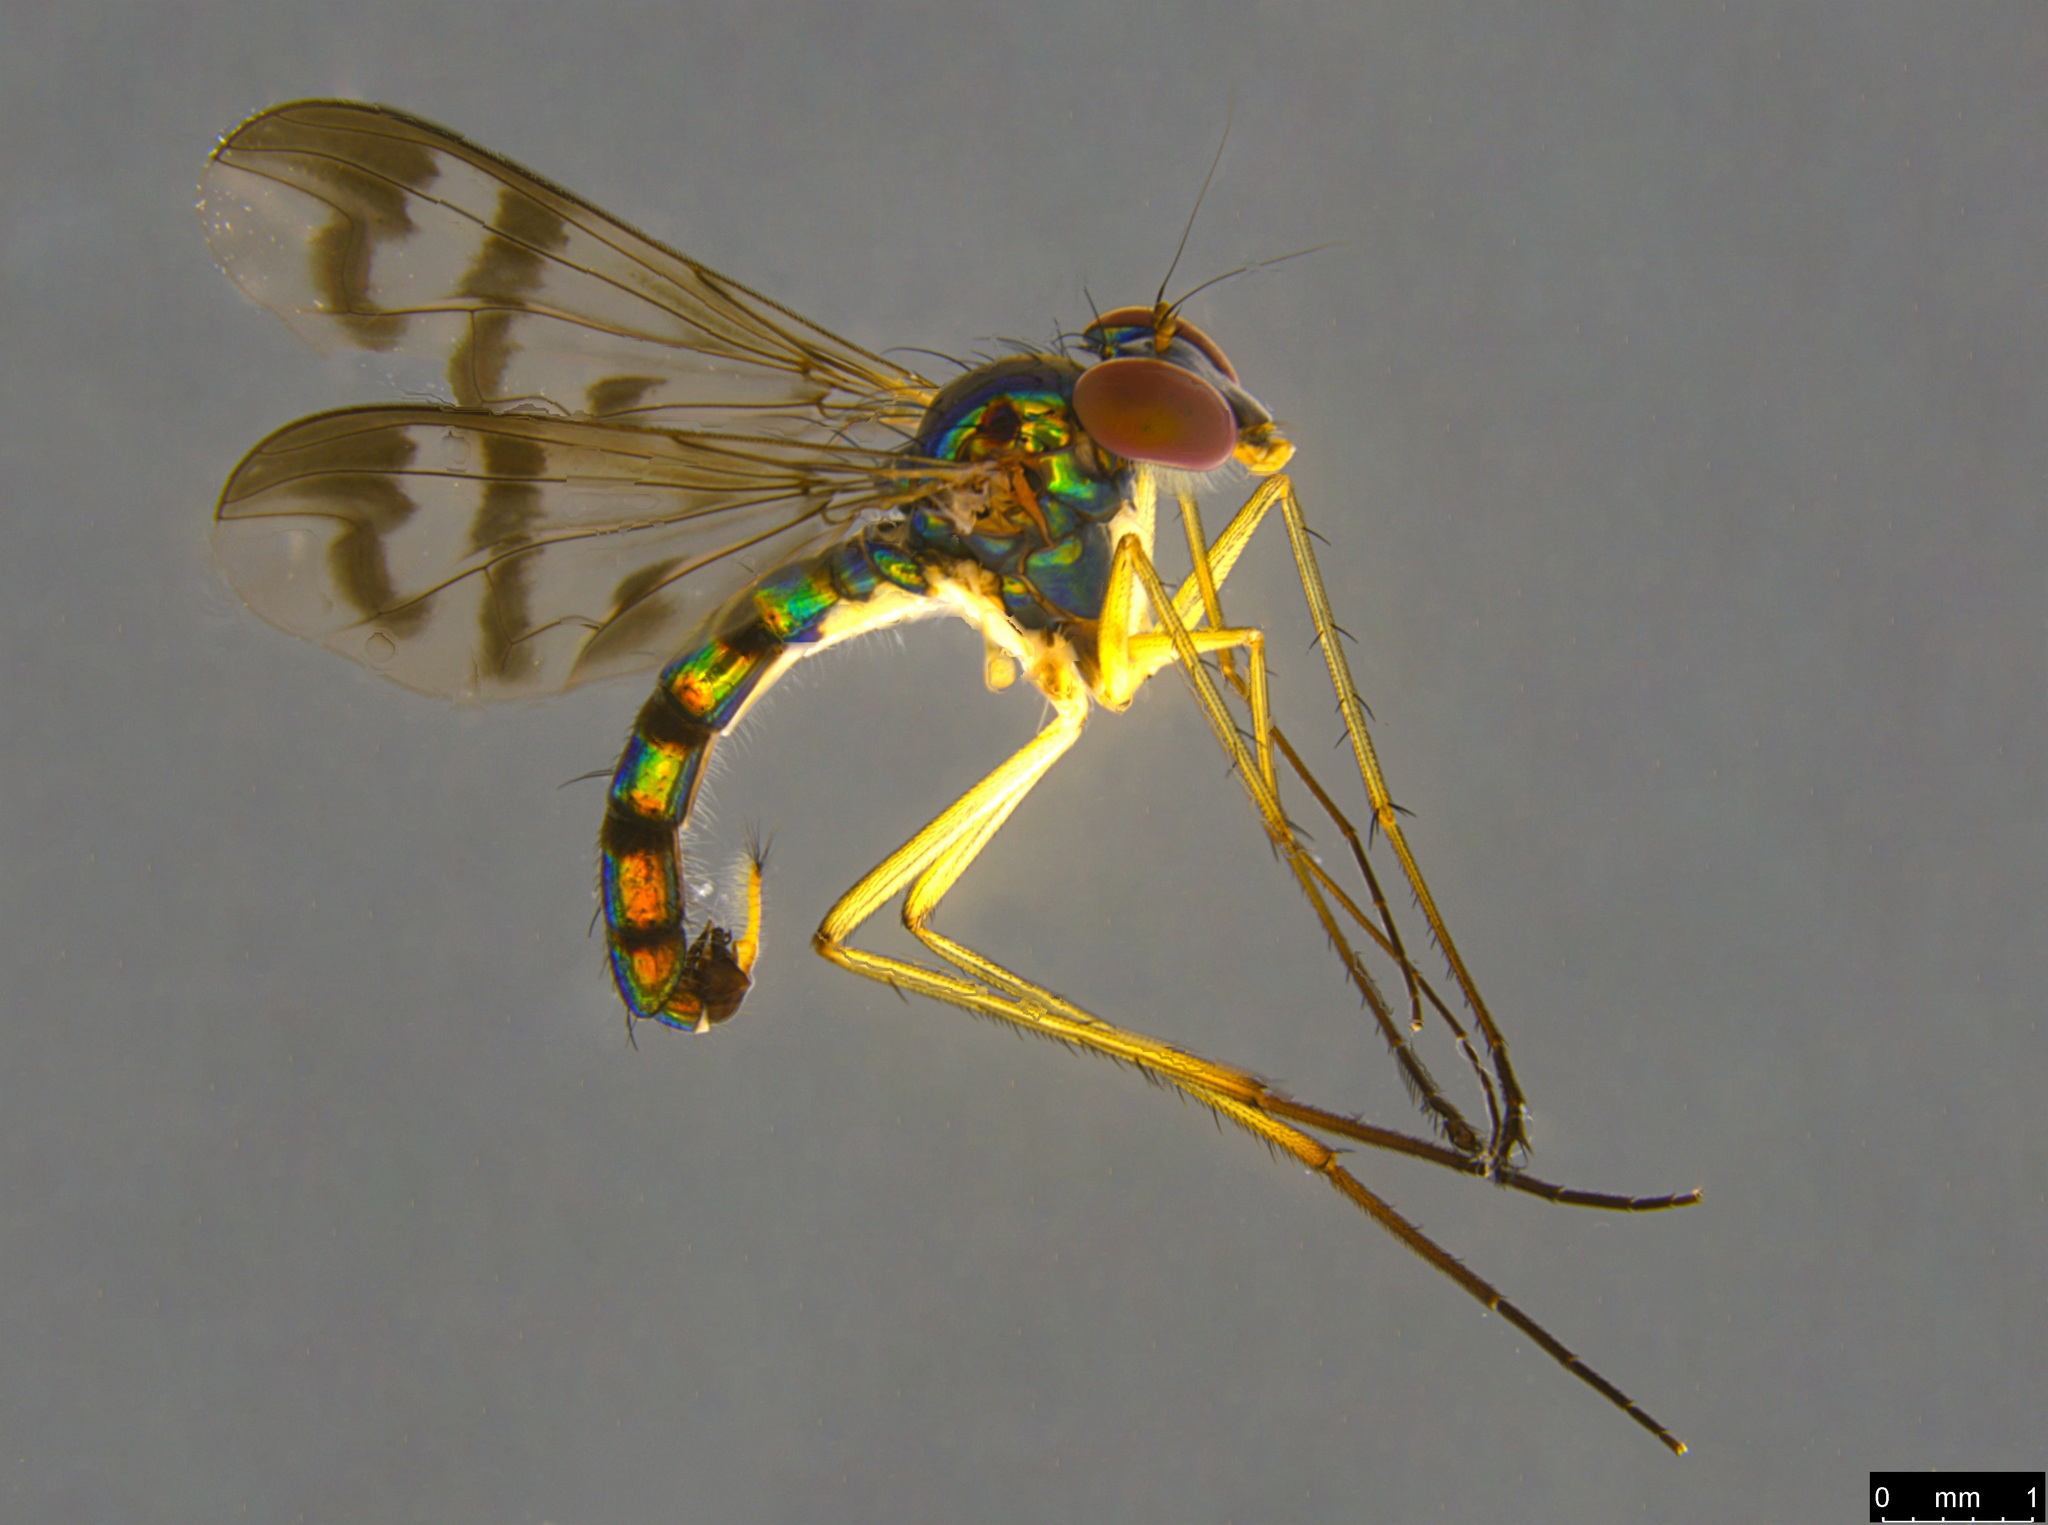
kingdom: Animalia
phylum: Arthropoda
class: Insecta
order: Diptera
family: Dolichopodidae
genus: Heteropsilopus
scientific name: Heteropsilopus ingenuum
